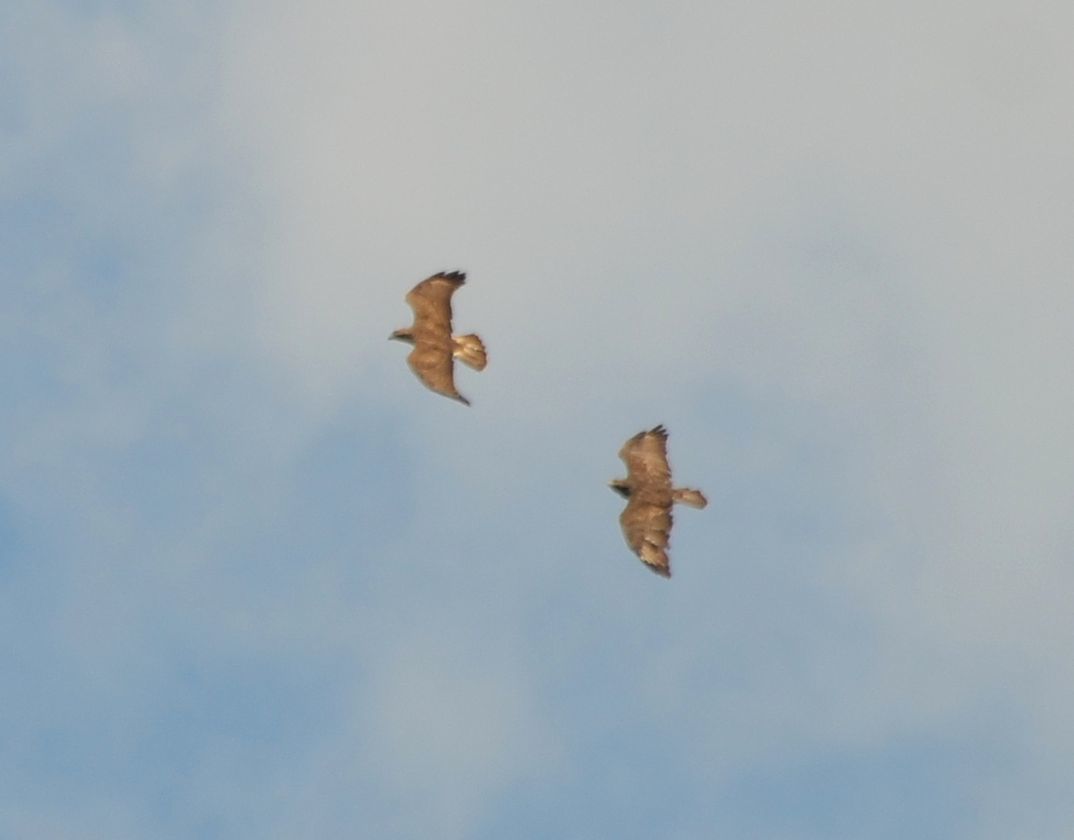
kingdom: Animalia
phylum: Chordata
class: Aves
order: Accipitriformes
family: Accipitridae
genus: Buteo
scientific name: Buteo buteo
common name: Common buzzard
